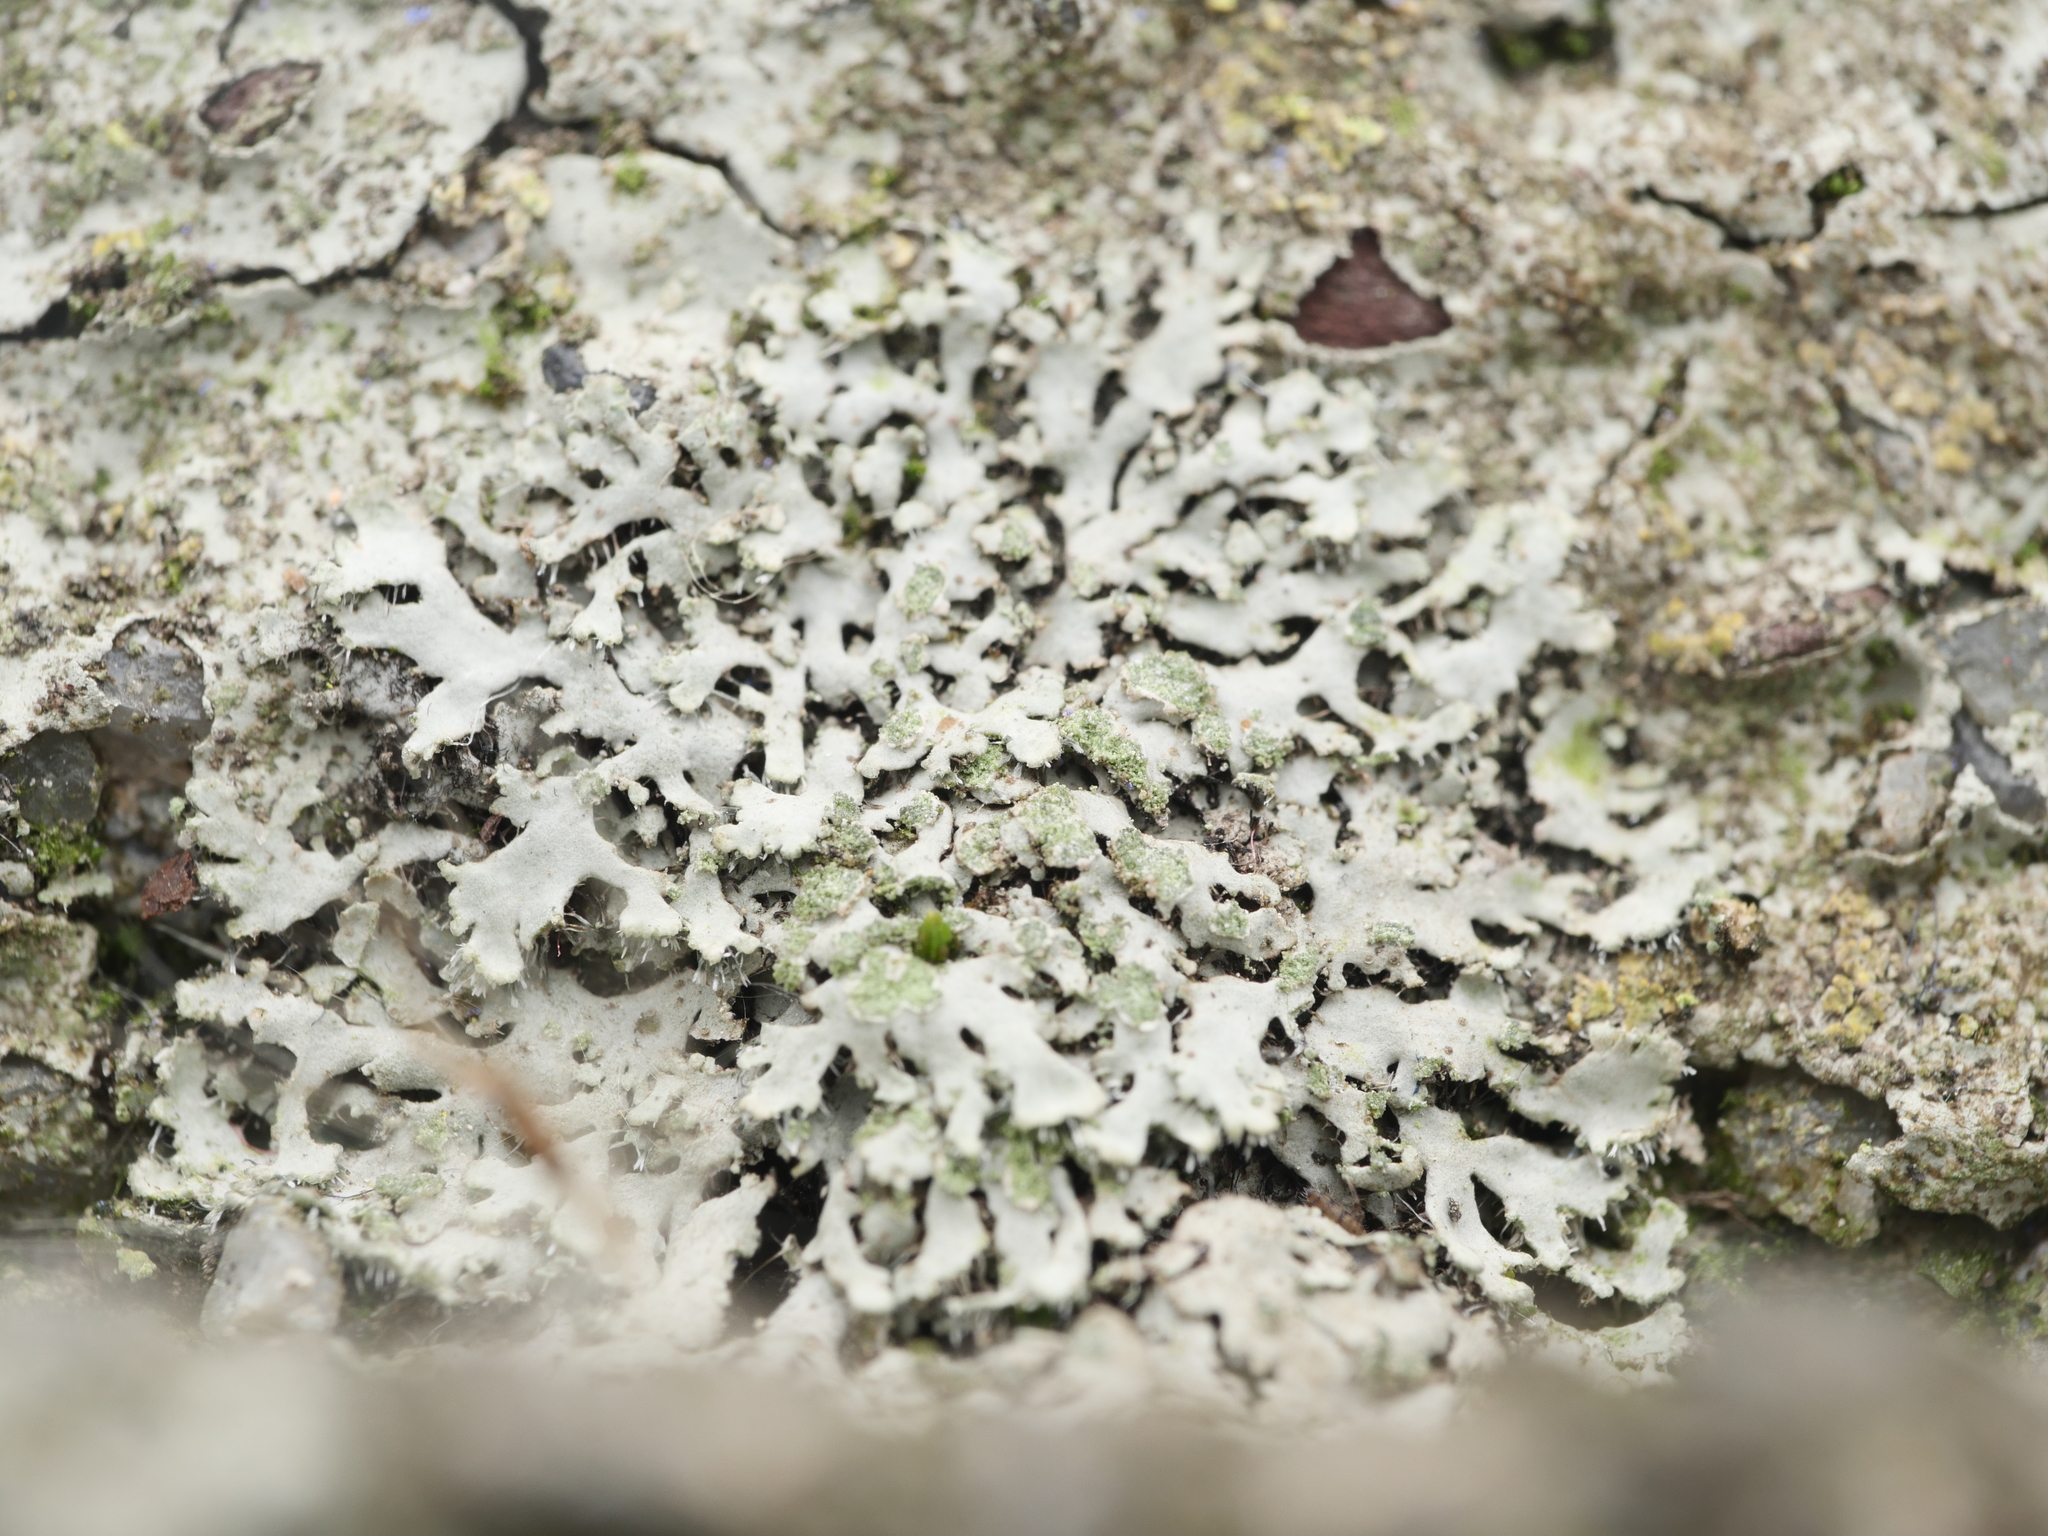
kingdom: Fungi
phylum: Ascomycota
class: Lecanoromycetes
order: Caliciales
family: Physciaceae
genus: Phaeophyscia
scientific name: Phaeophyscia orbicularis
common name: Mealy shadow lichen
